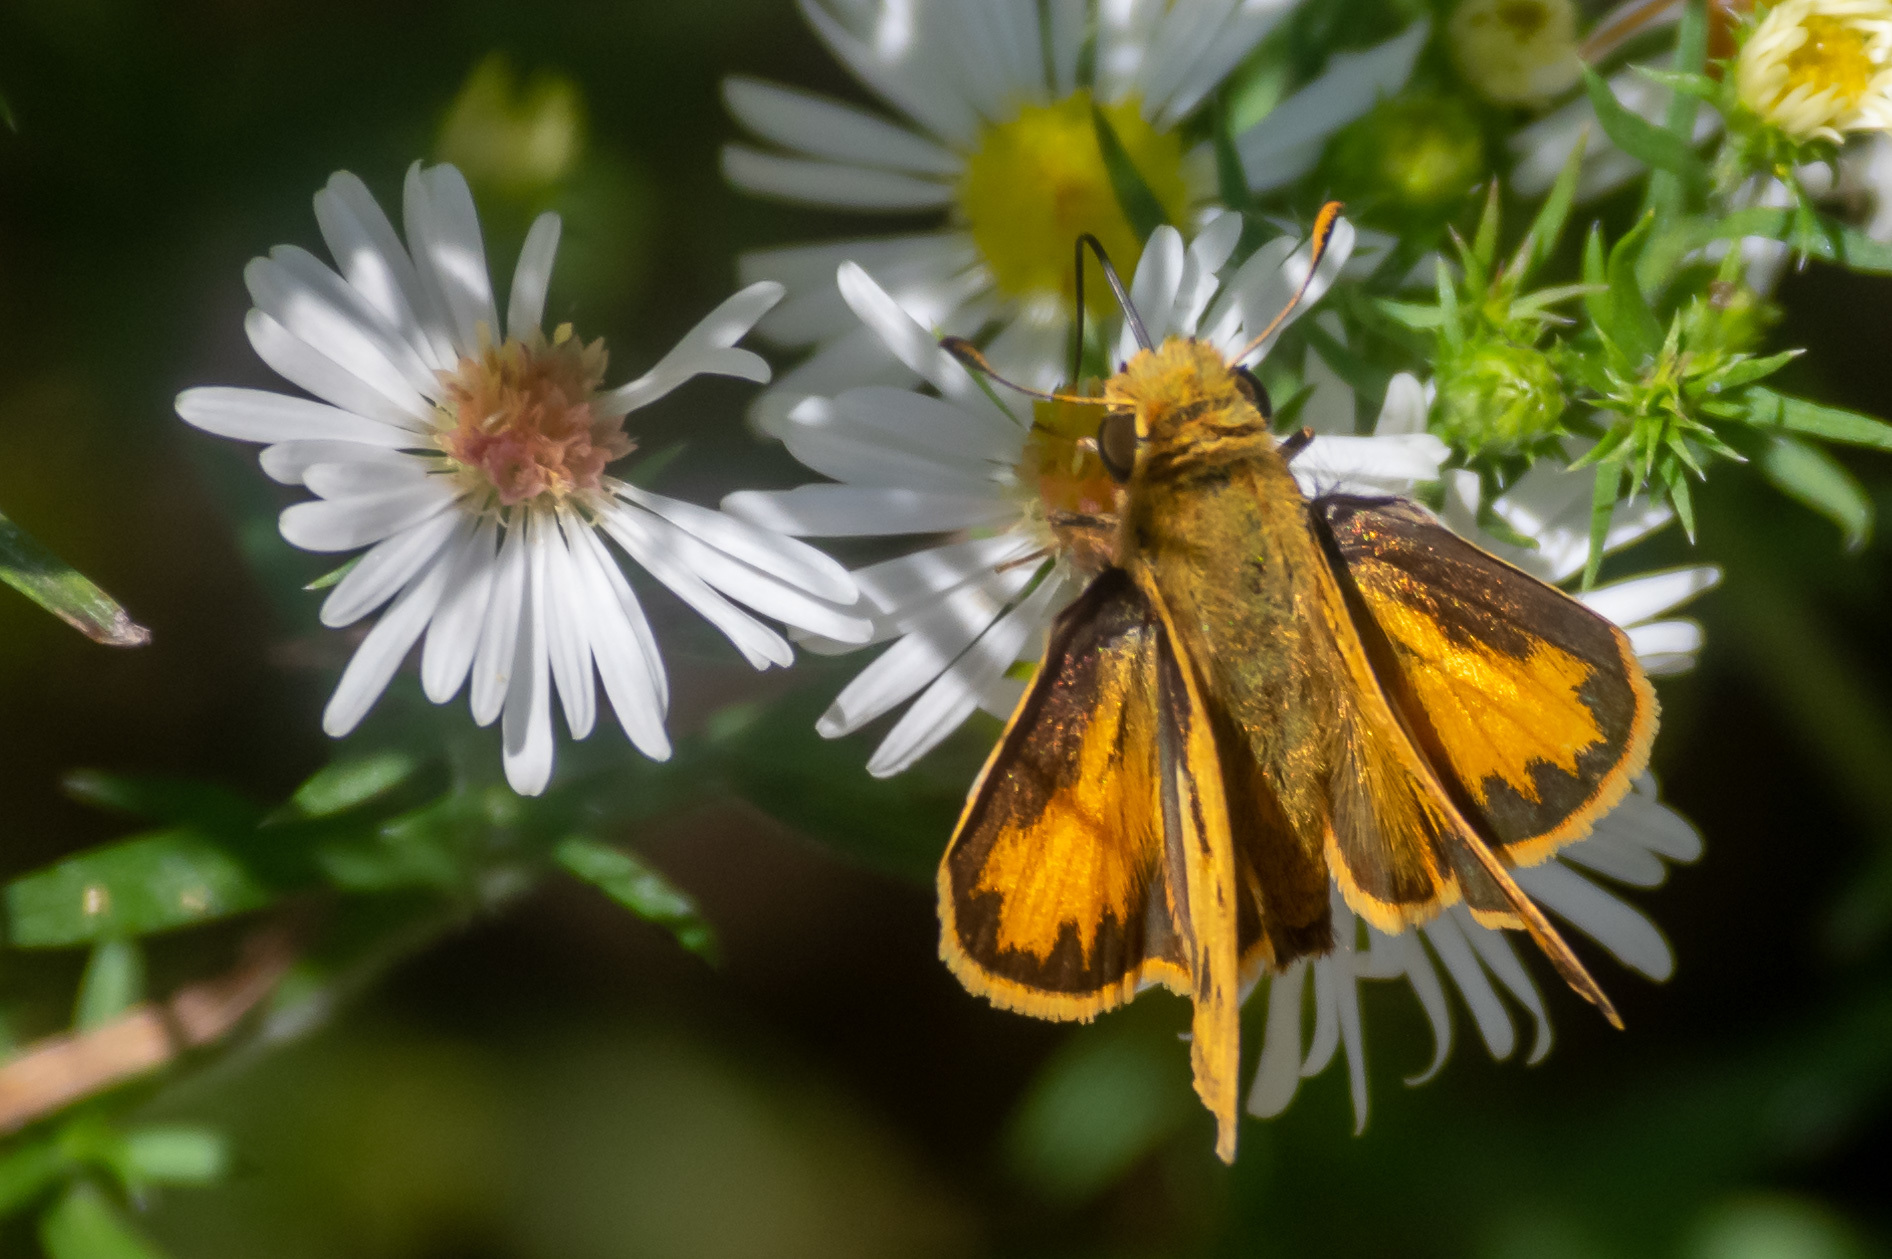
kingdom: Animalia
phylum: Arthropoda
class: Insecta
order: Lepidoptera
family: Hesperiidae
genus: Hylephila
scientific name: Hylephila phyleus
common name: Fiery skipper
